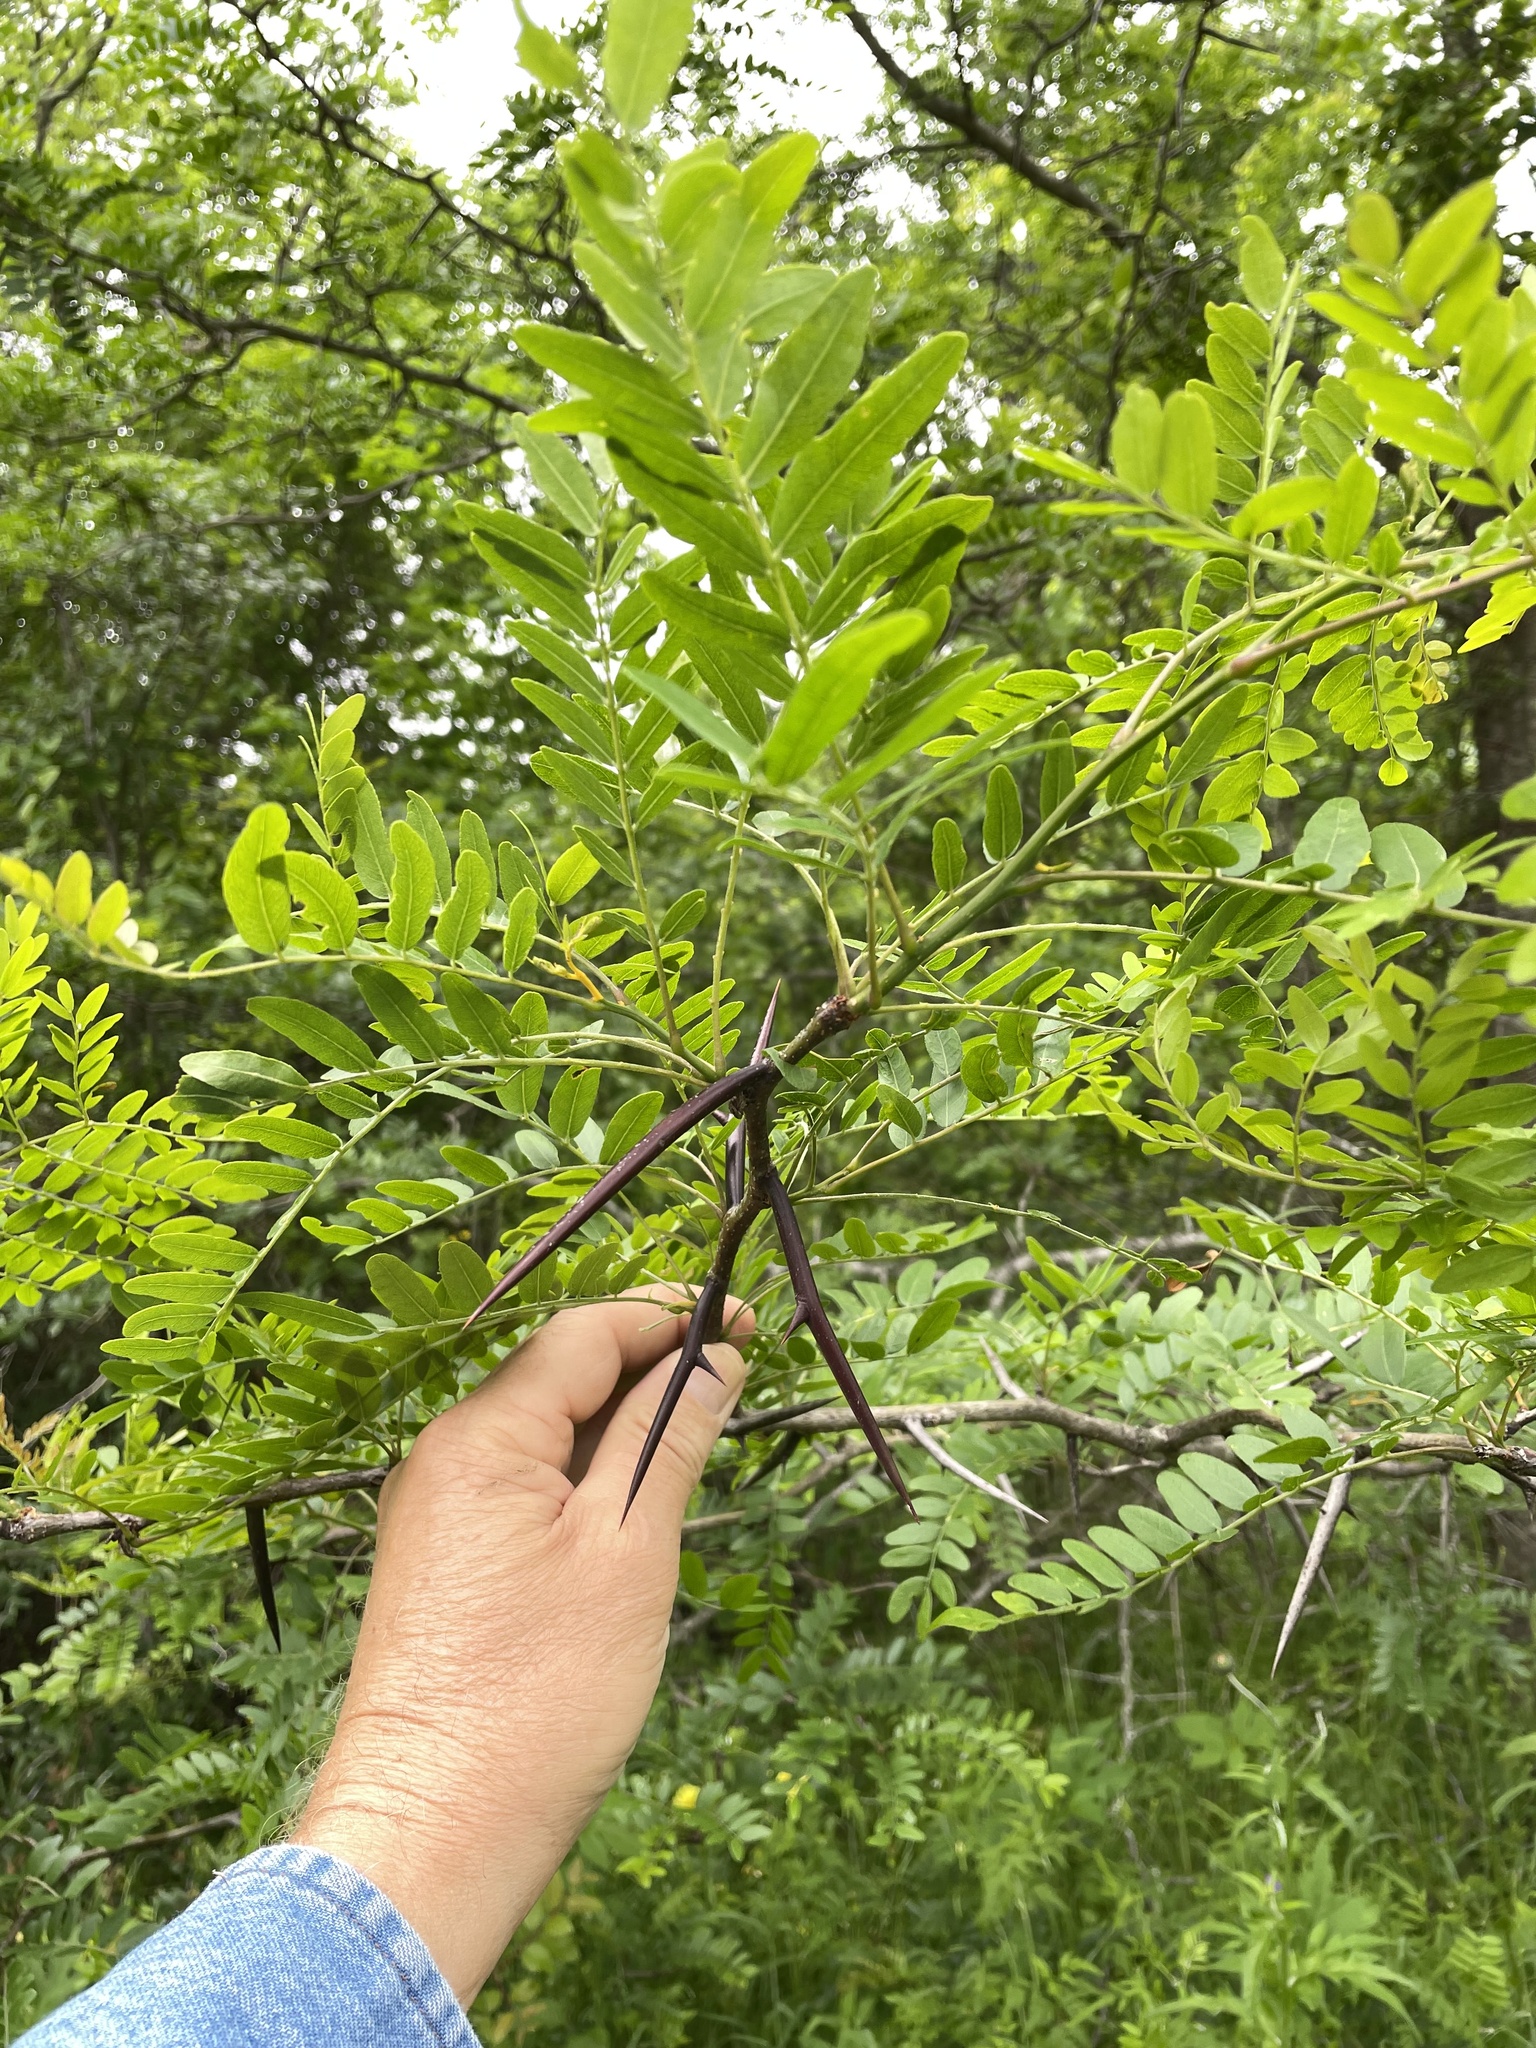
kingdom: Plantae
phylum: Tracheophyta
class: Magnoliopsida
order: Fabales
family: Fabaceae
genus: Gleditsia
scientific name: Gleditsia triacanthos
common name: Common honeylocust
